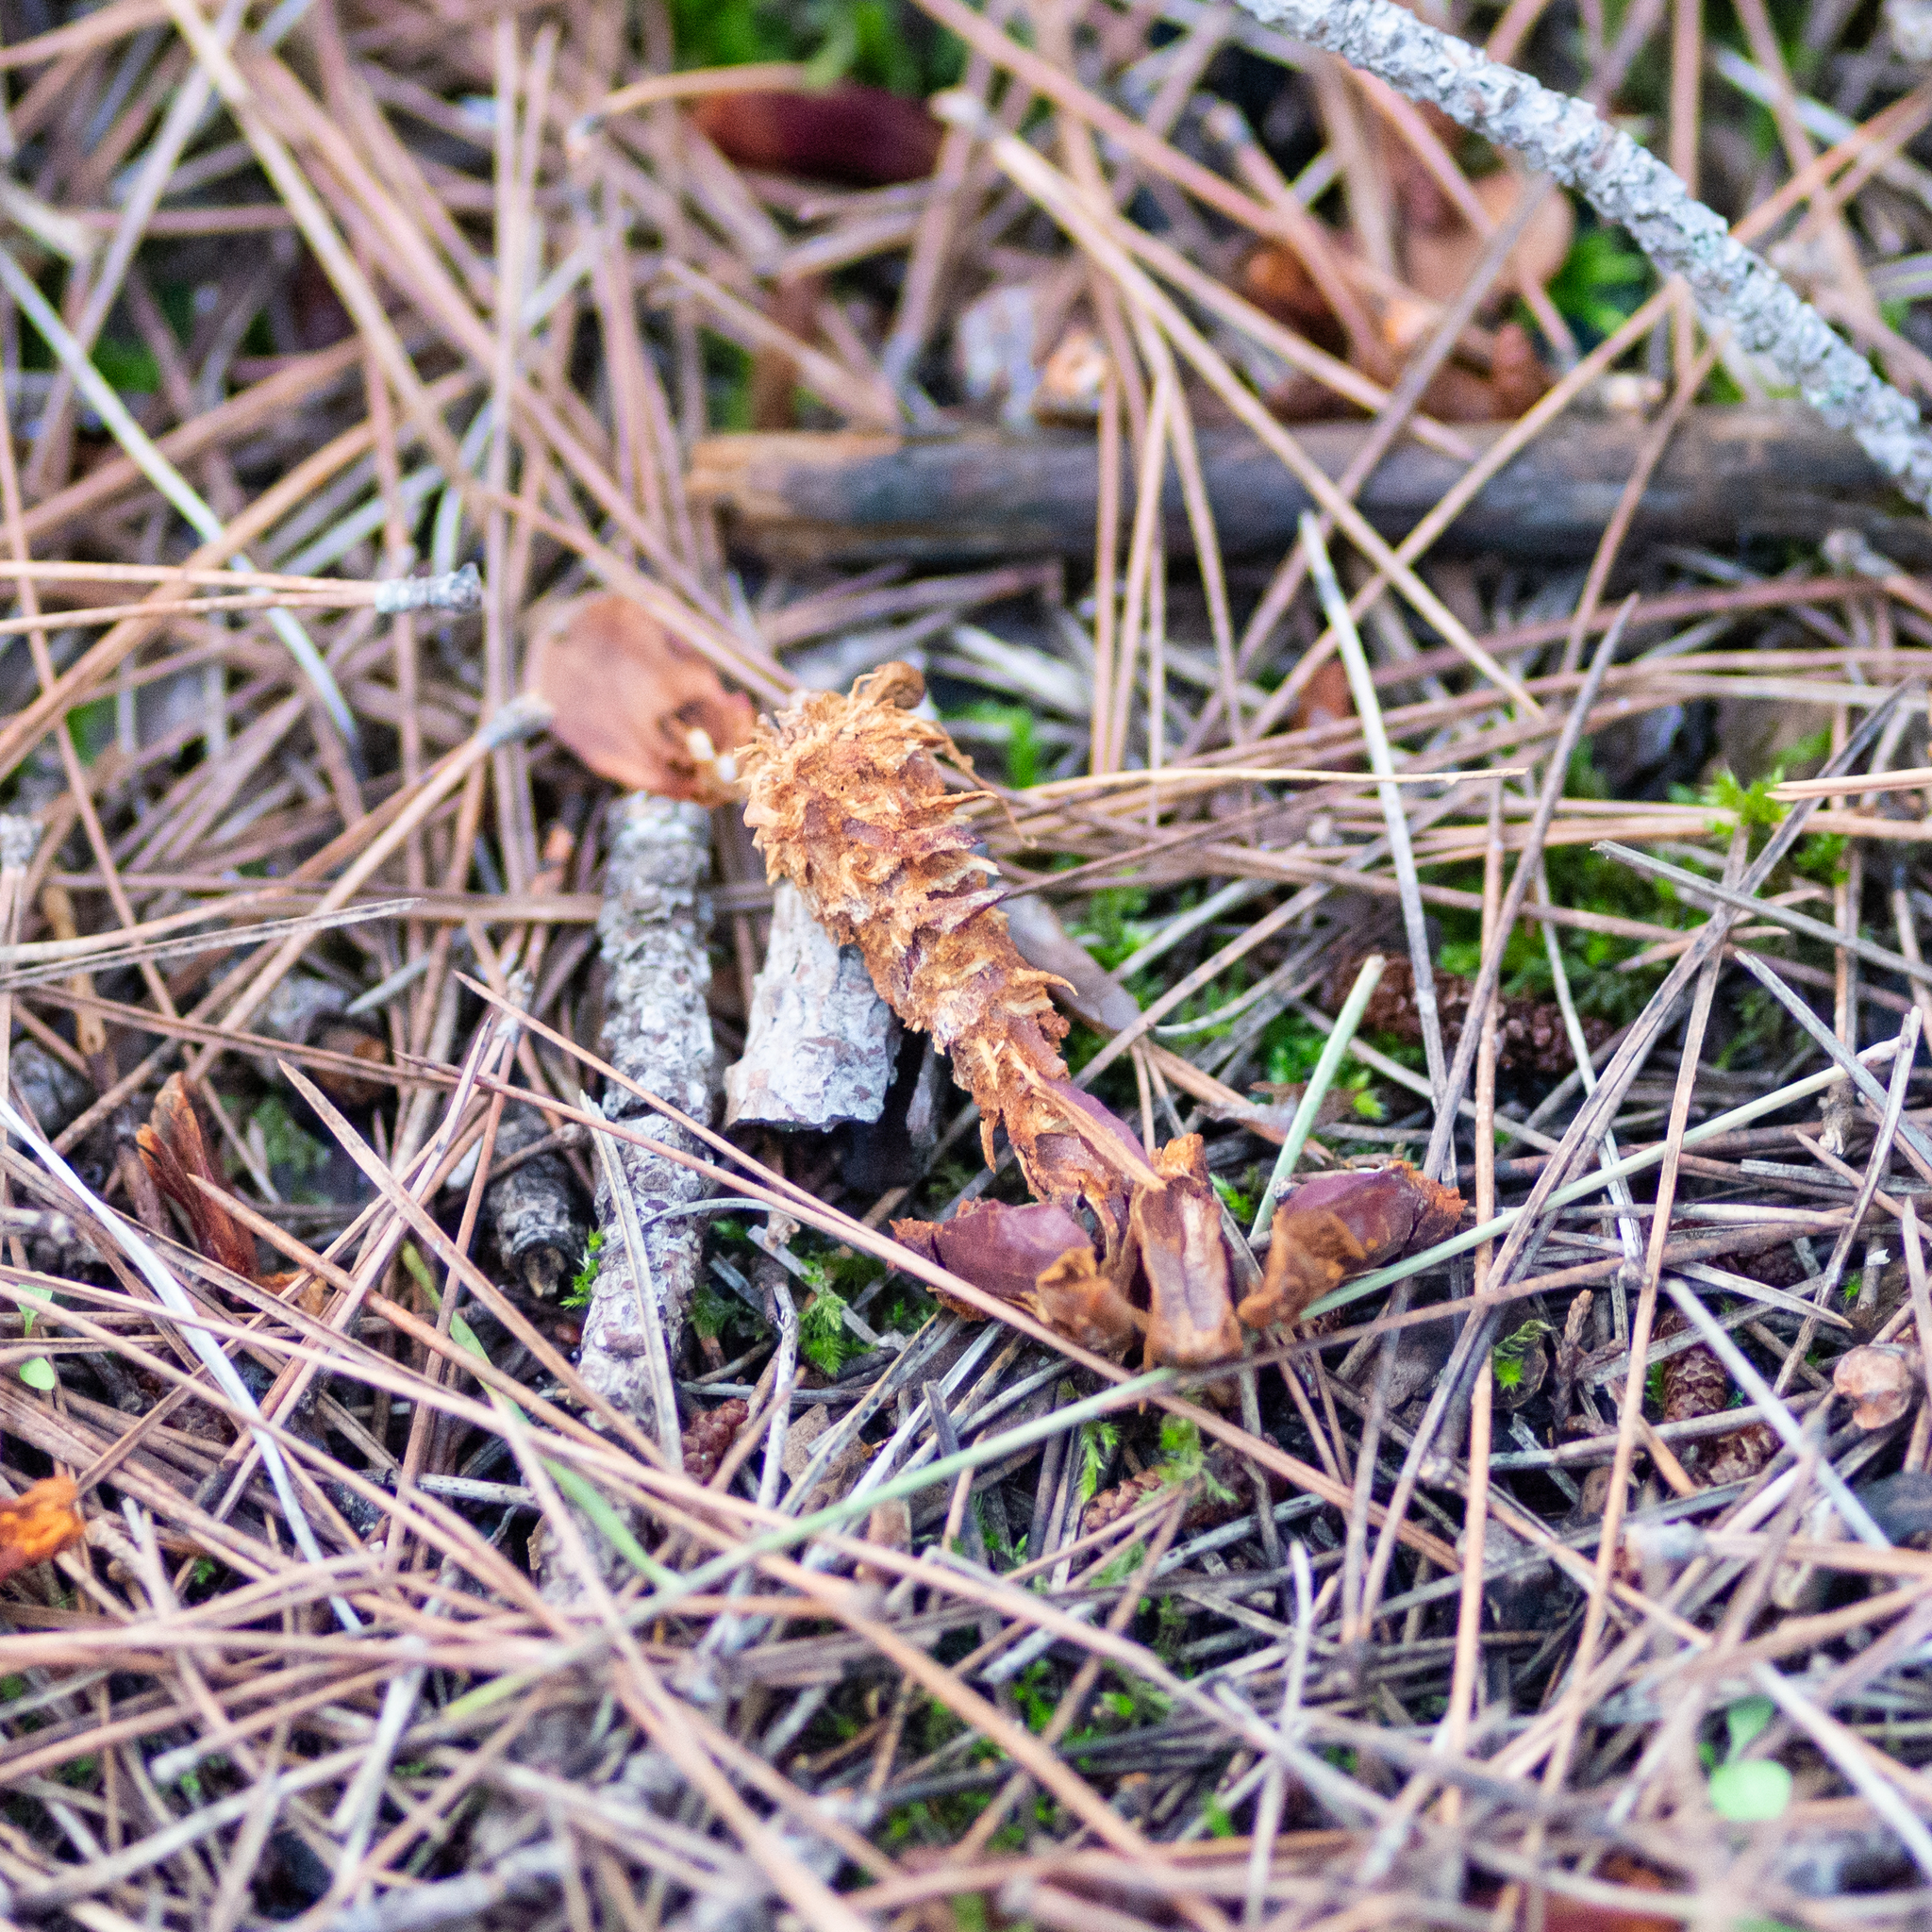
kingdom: Animalia
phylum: Chordata
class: Mammalia
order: Rodentia
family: Sciuridae
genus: Sciurus
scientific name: Sciurus vulgaris
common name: Eurasian red squirrel
